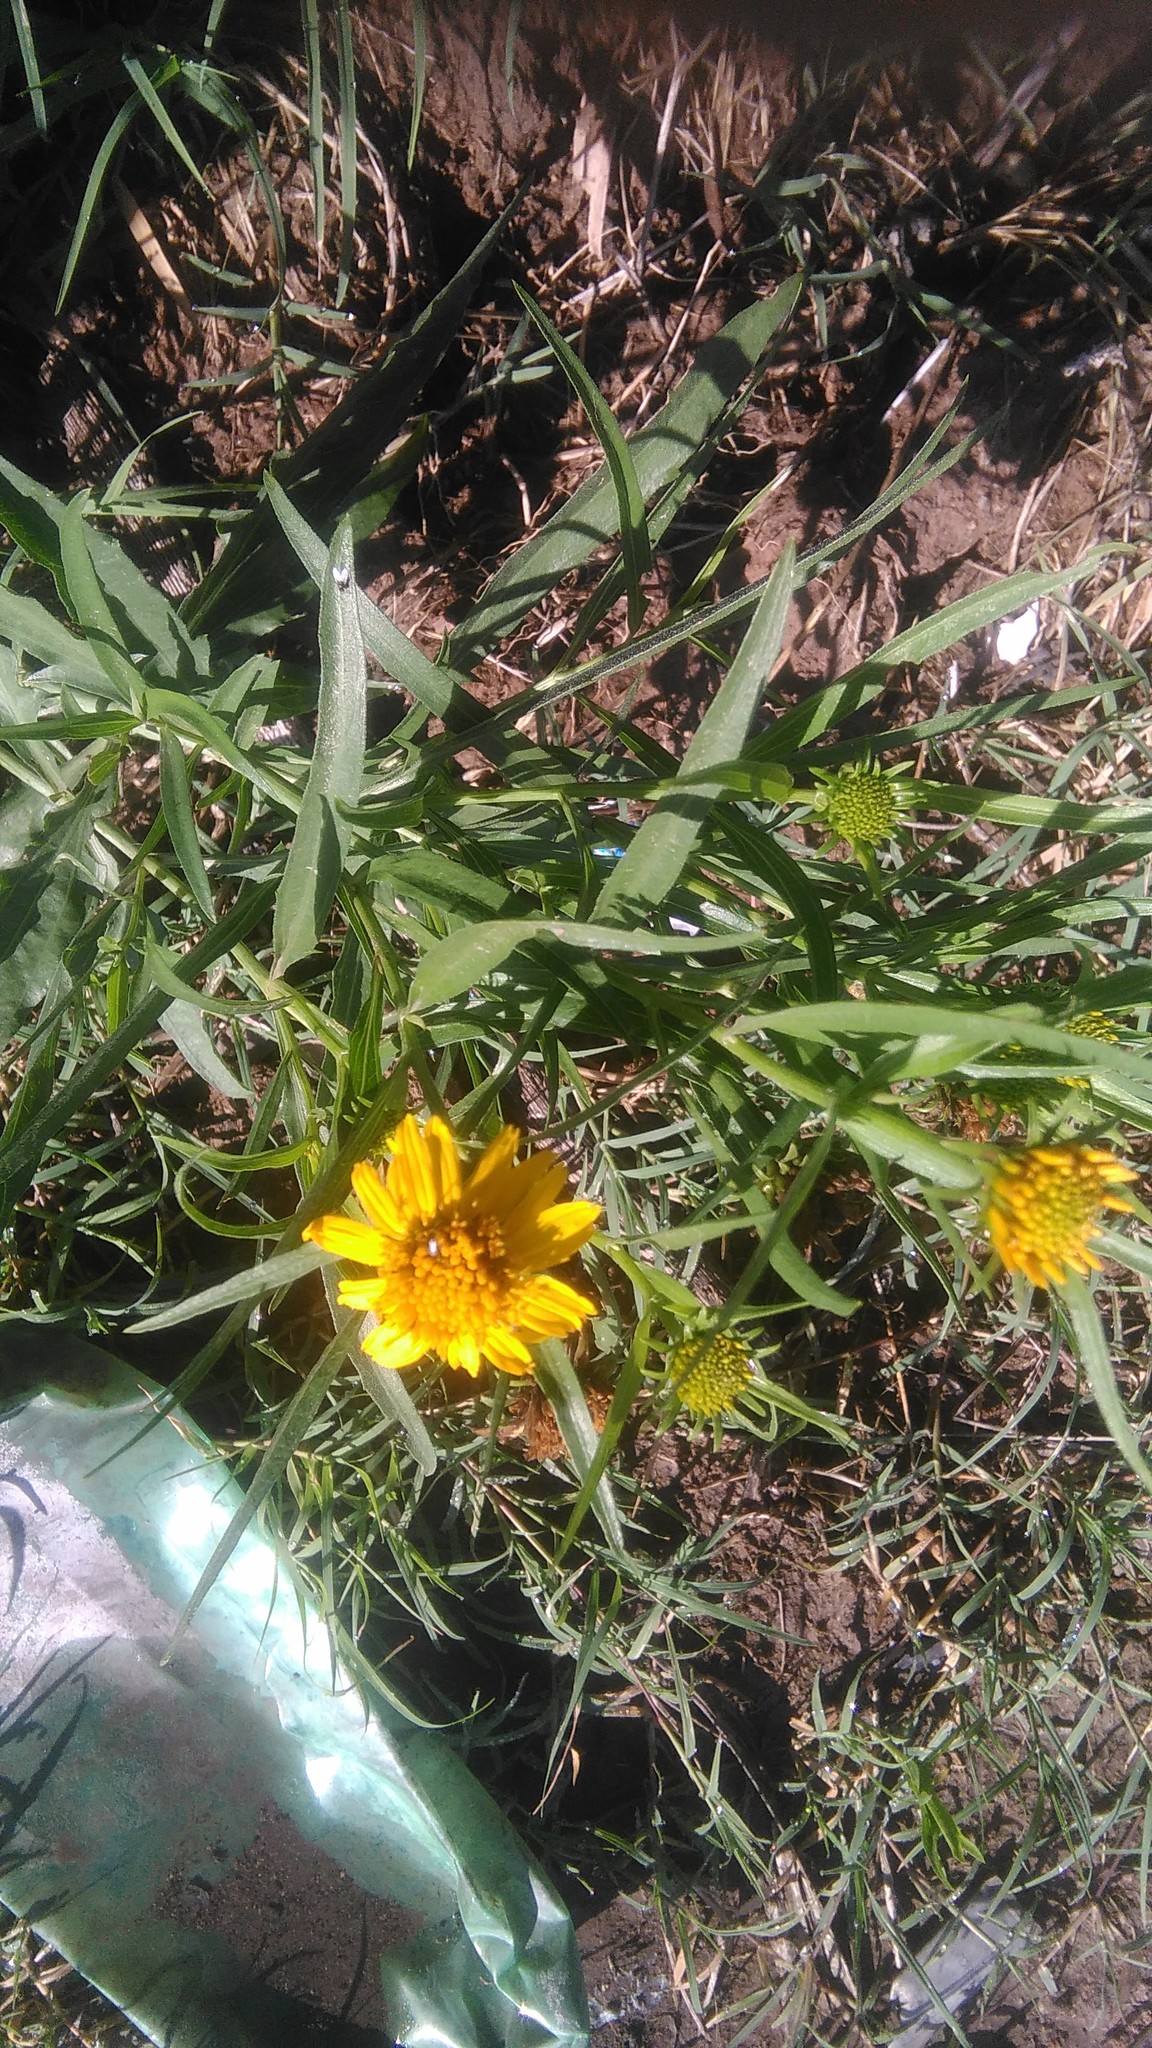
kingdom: Plantae
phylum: Tracheophyta
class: Magnoliopsida
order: Asterales
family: Asteraceae
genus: Pascalia
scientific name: Pascalia glauca
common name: Beach creeping oxeye
